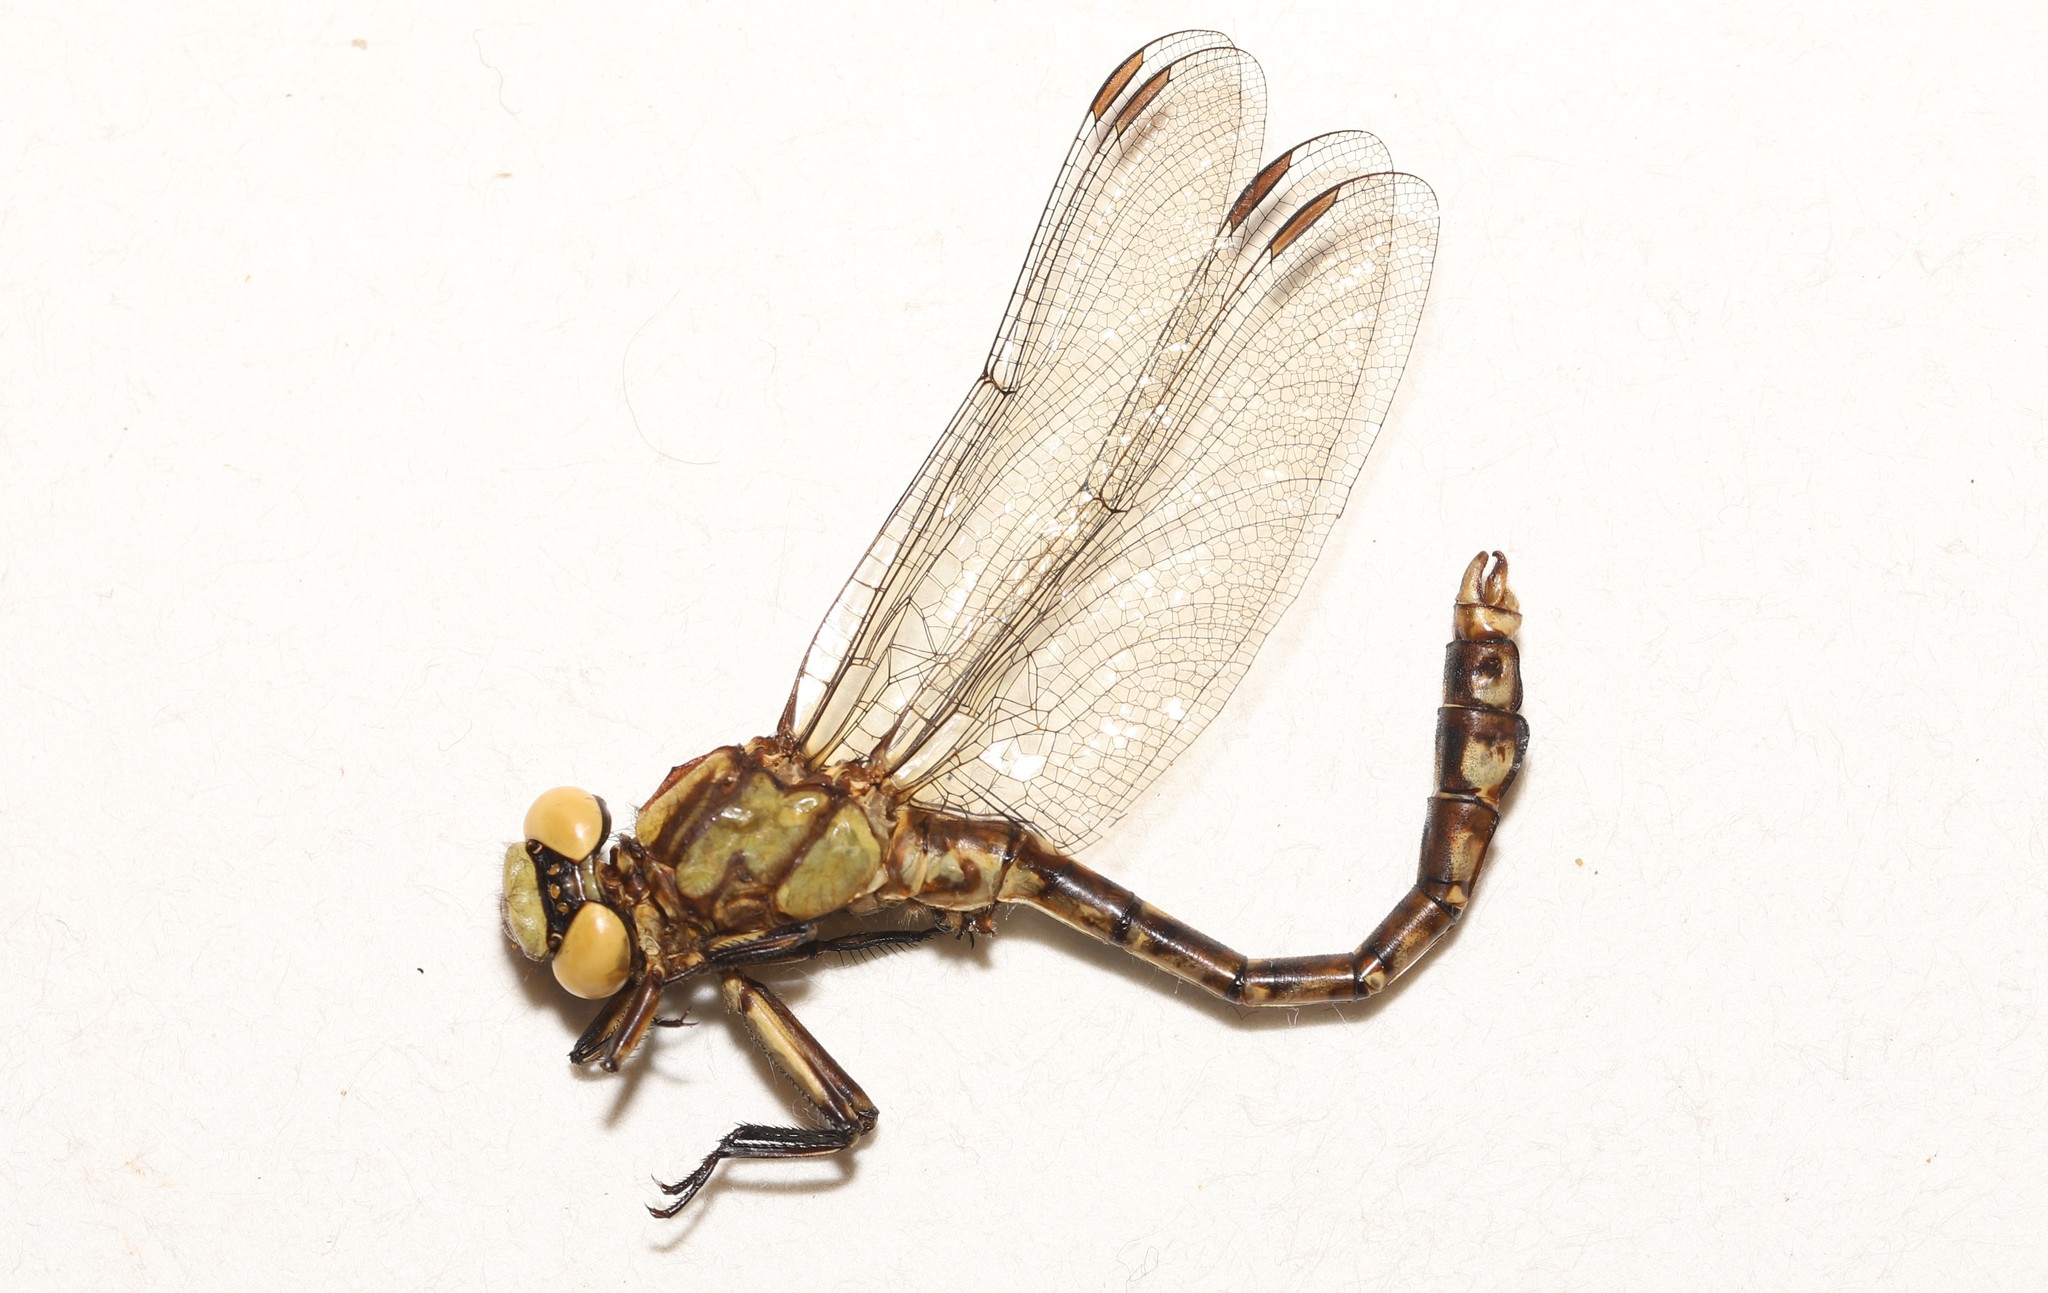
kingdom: Animalia
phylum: Arthropoda
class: Insecta
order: Odonata
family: Gomphidae
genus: Ophiogomphus
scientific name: Ophiogomphus colubrinus
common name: Boreal snaketail
